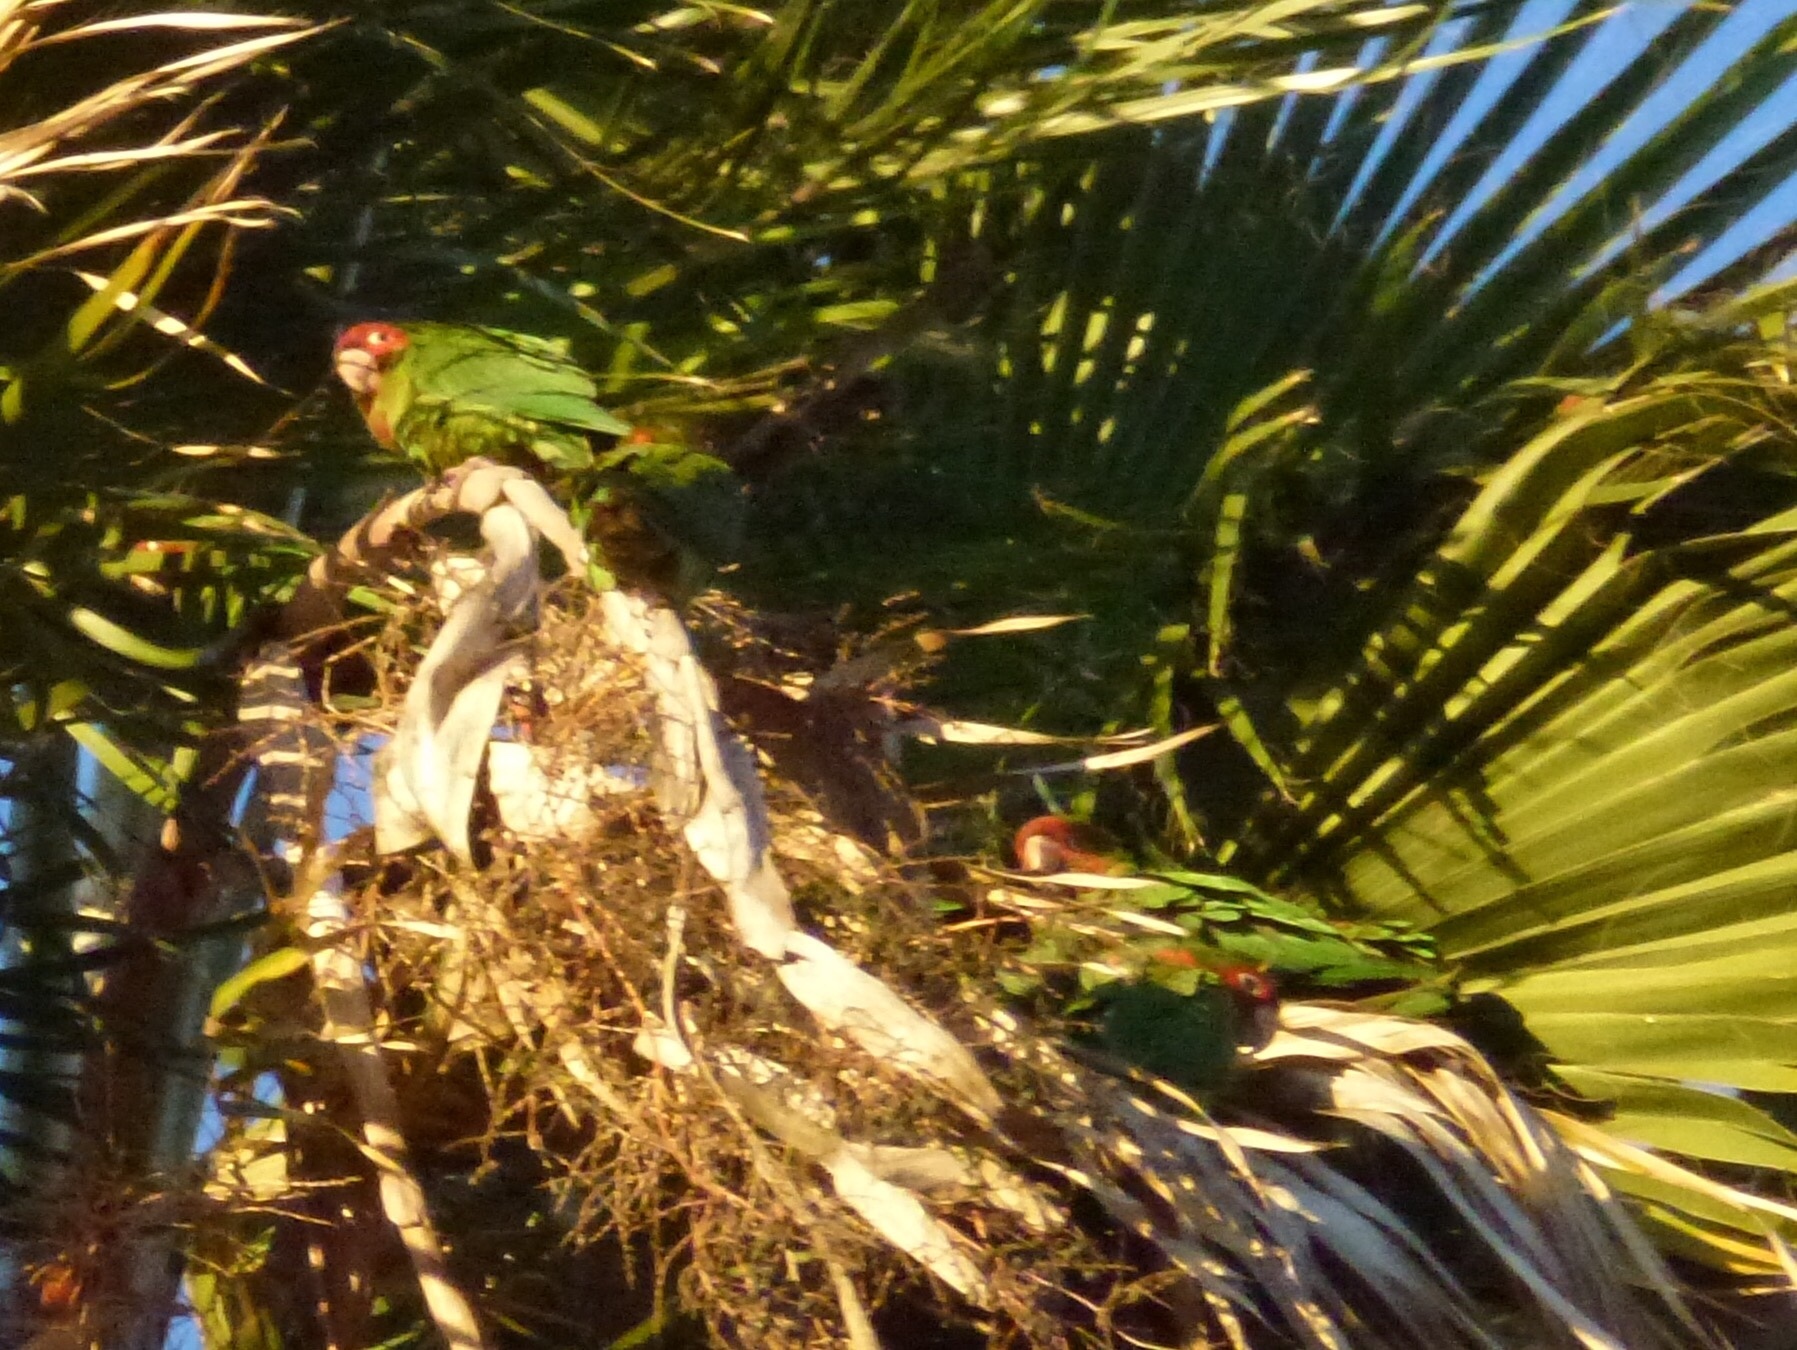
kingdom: Animalia
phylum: Chordata
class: Aves
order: Psittaciformes
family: Psittacidae
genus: Aratinga
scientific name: Aratinga mitrata
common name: Mitred parakeet
